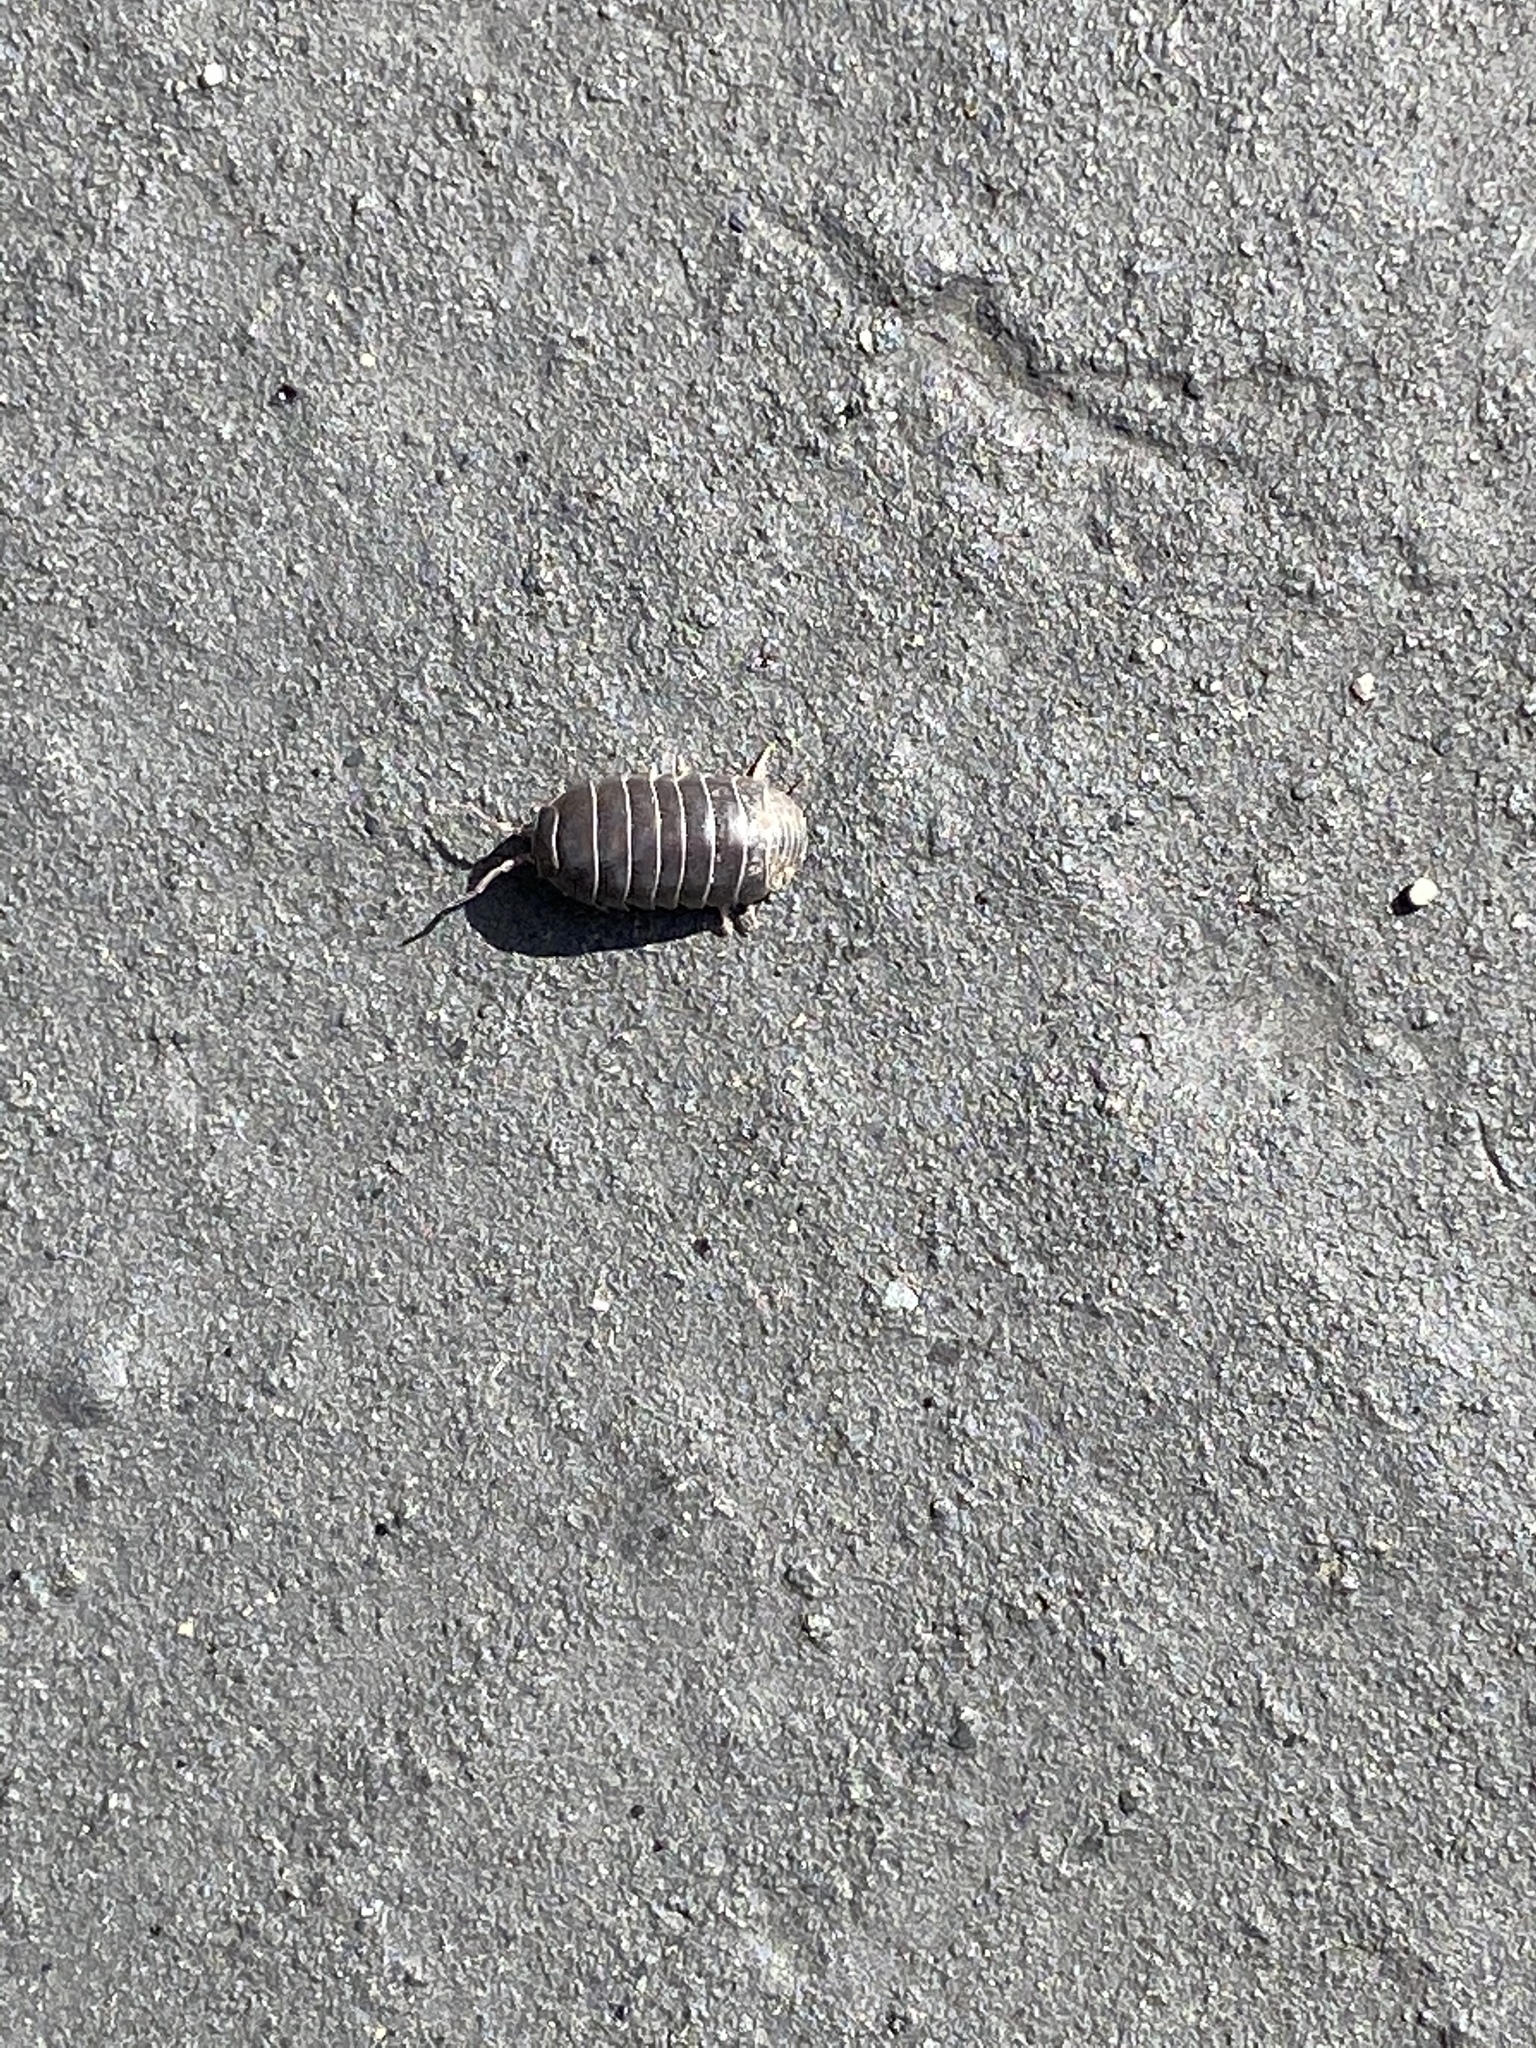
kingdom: Animalia
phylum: Arthropoda
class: Malacostraca
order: Isopoda
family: Armadillidiidae
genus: Armadillidium
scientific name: Armadillidium vulgare
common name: Common pill woodlouse
